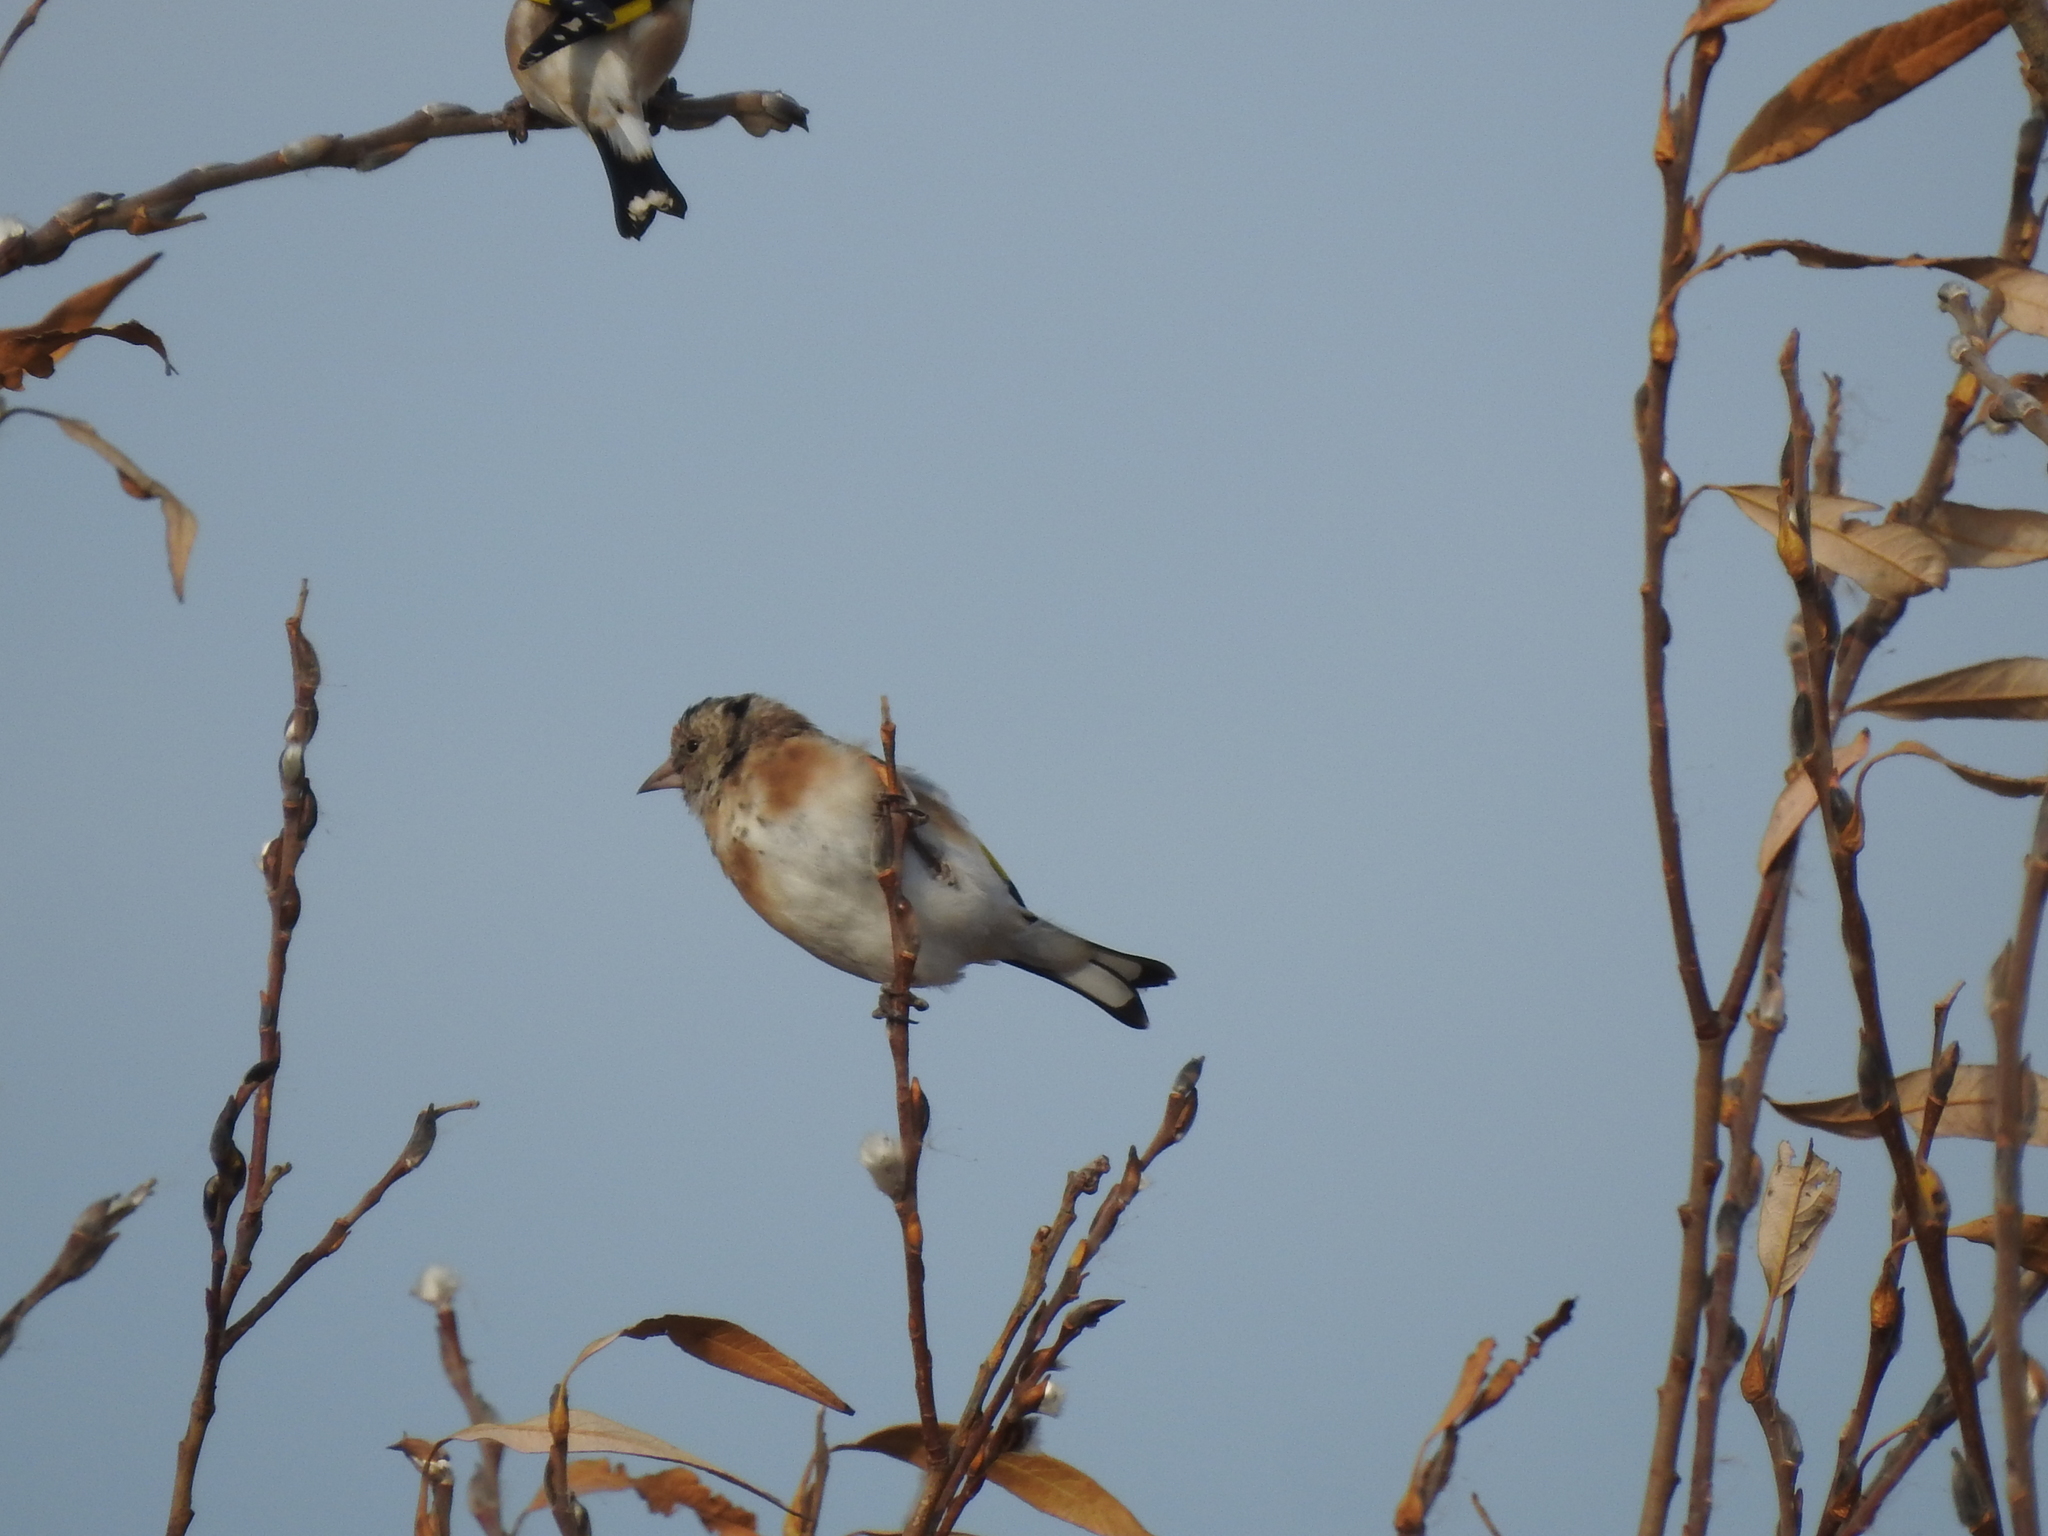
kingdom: Animalia
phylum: Chordata
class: Aves
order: Passeriformes
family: Fringillidae
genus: Carduelis
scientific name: Carduelis carduelis
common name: European goldfinch
